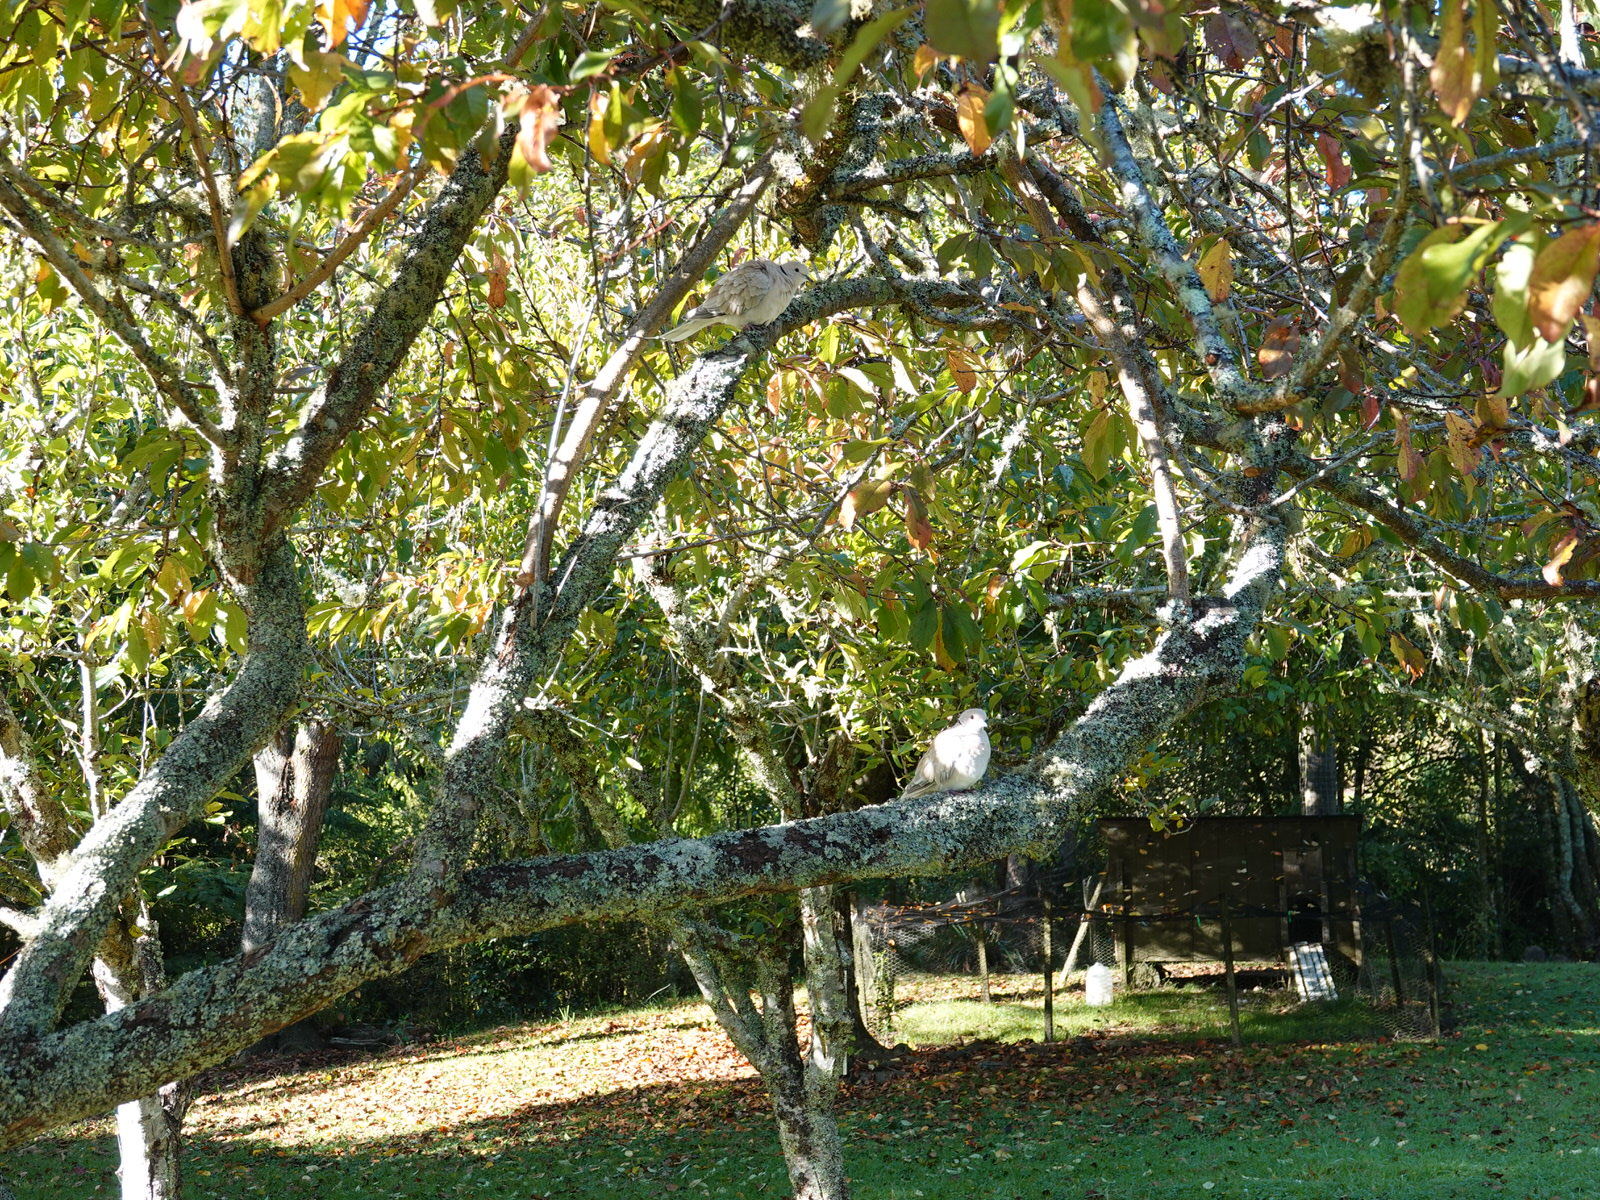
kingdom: Animalia
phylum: Chordata
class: Aves
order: Columbiformes
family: Columbidae
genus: Streptopelia
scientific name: Streptopelia roseogrisea
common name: African collared dove
